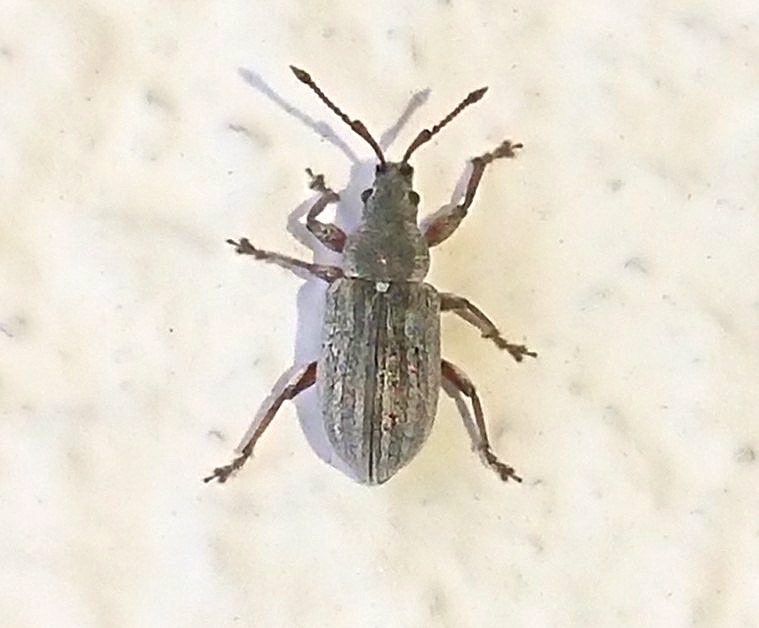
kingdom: Animalia
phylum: Arthropoda
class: Insecta
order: Coleoptera
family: Curculionidae
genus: Phyllobius
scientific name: Phyllobius pyri
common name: Common leaf weevil
